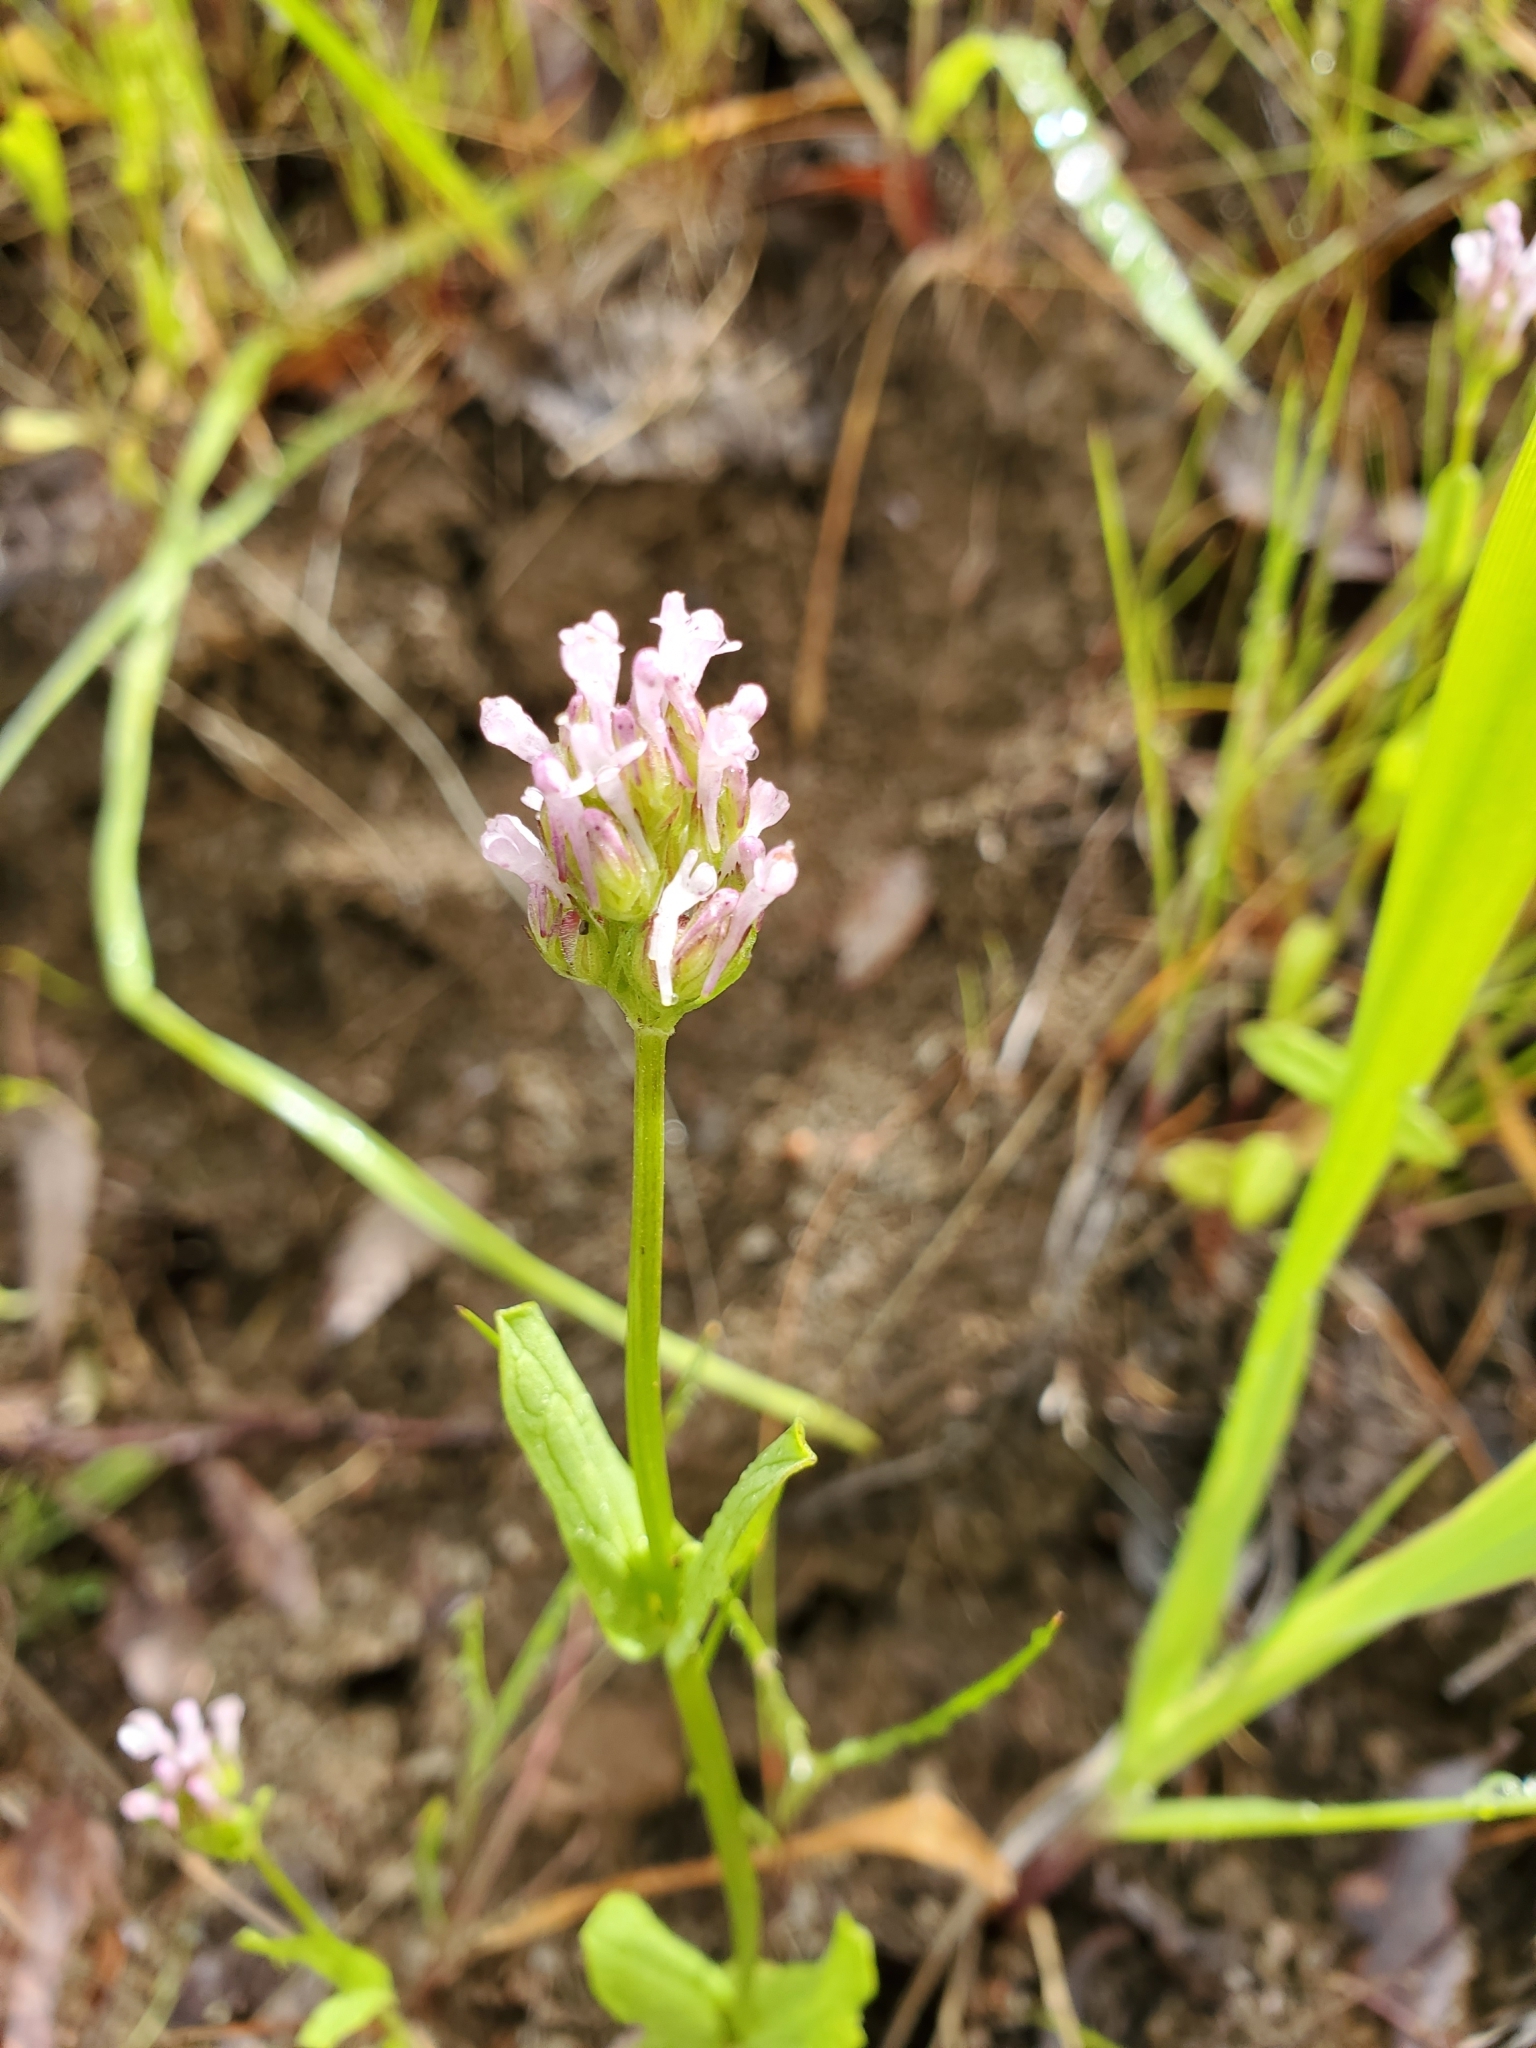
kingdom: Plantae
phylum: Tracheophyta
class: Magnoliopsida
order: Dipsacales
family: Caprifoliaceae
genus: Plectritis
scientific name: Plectritis ciliosa
